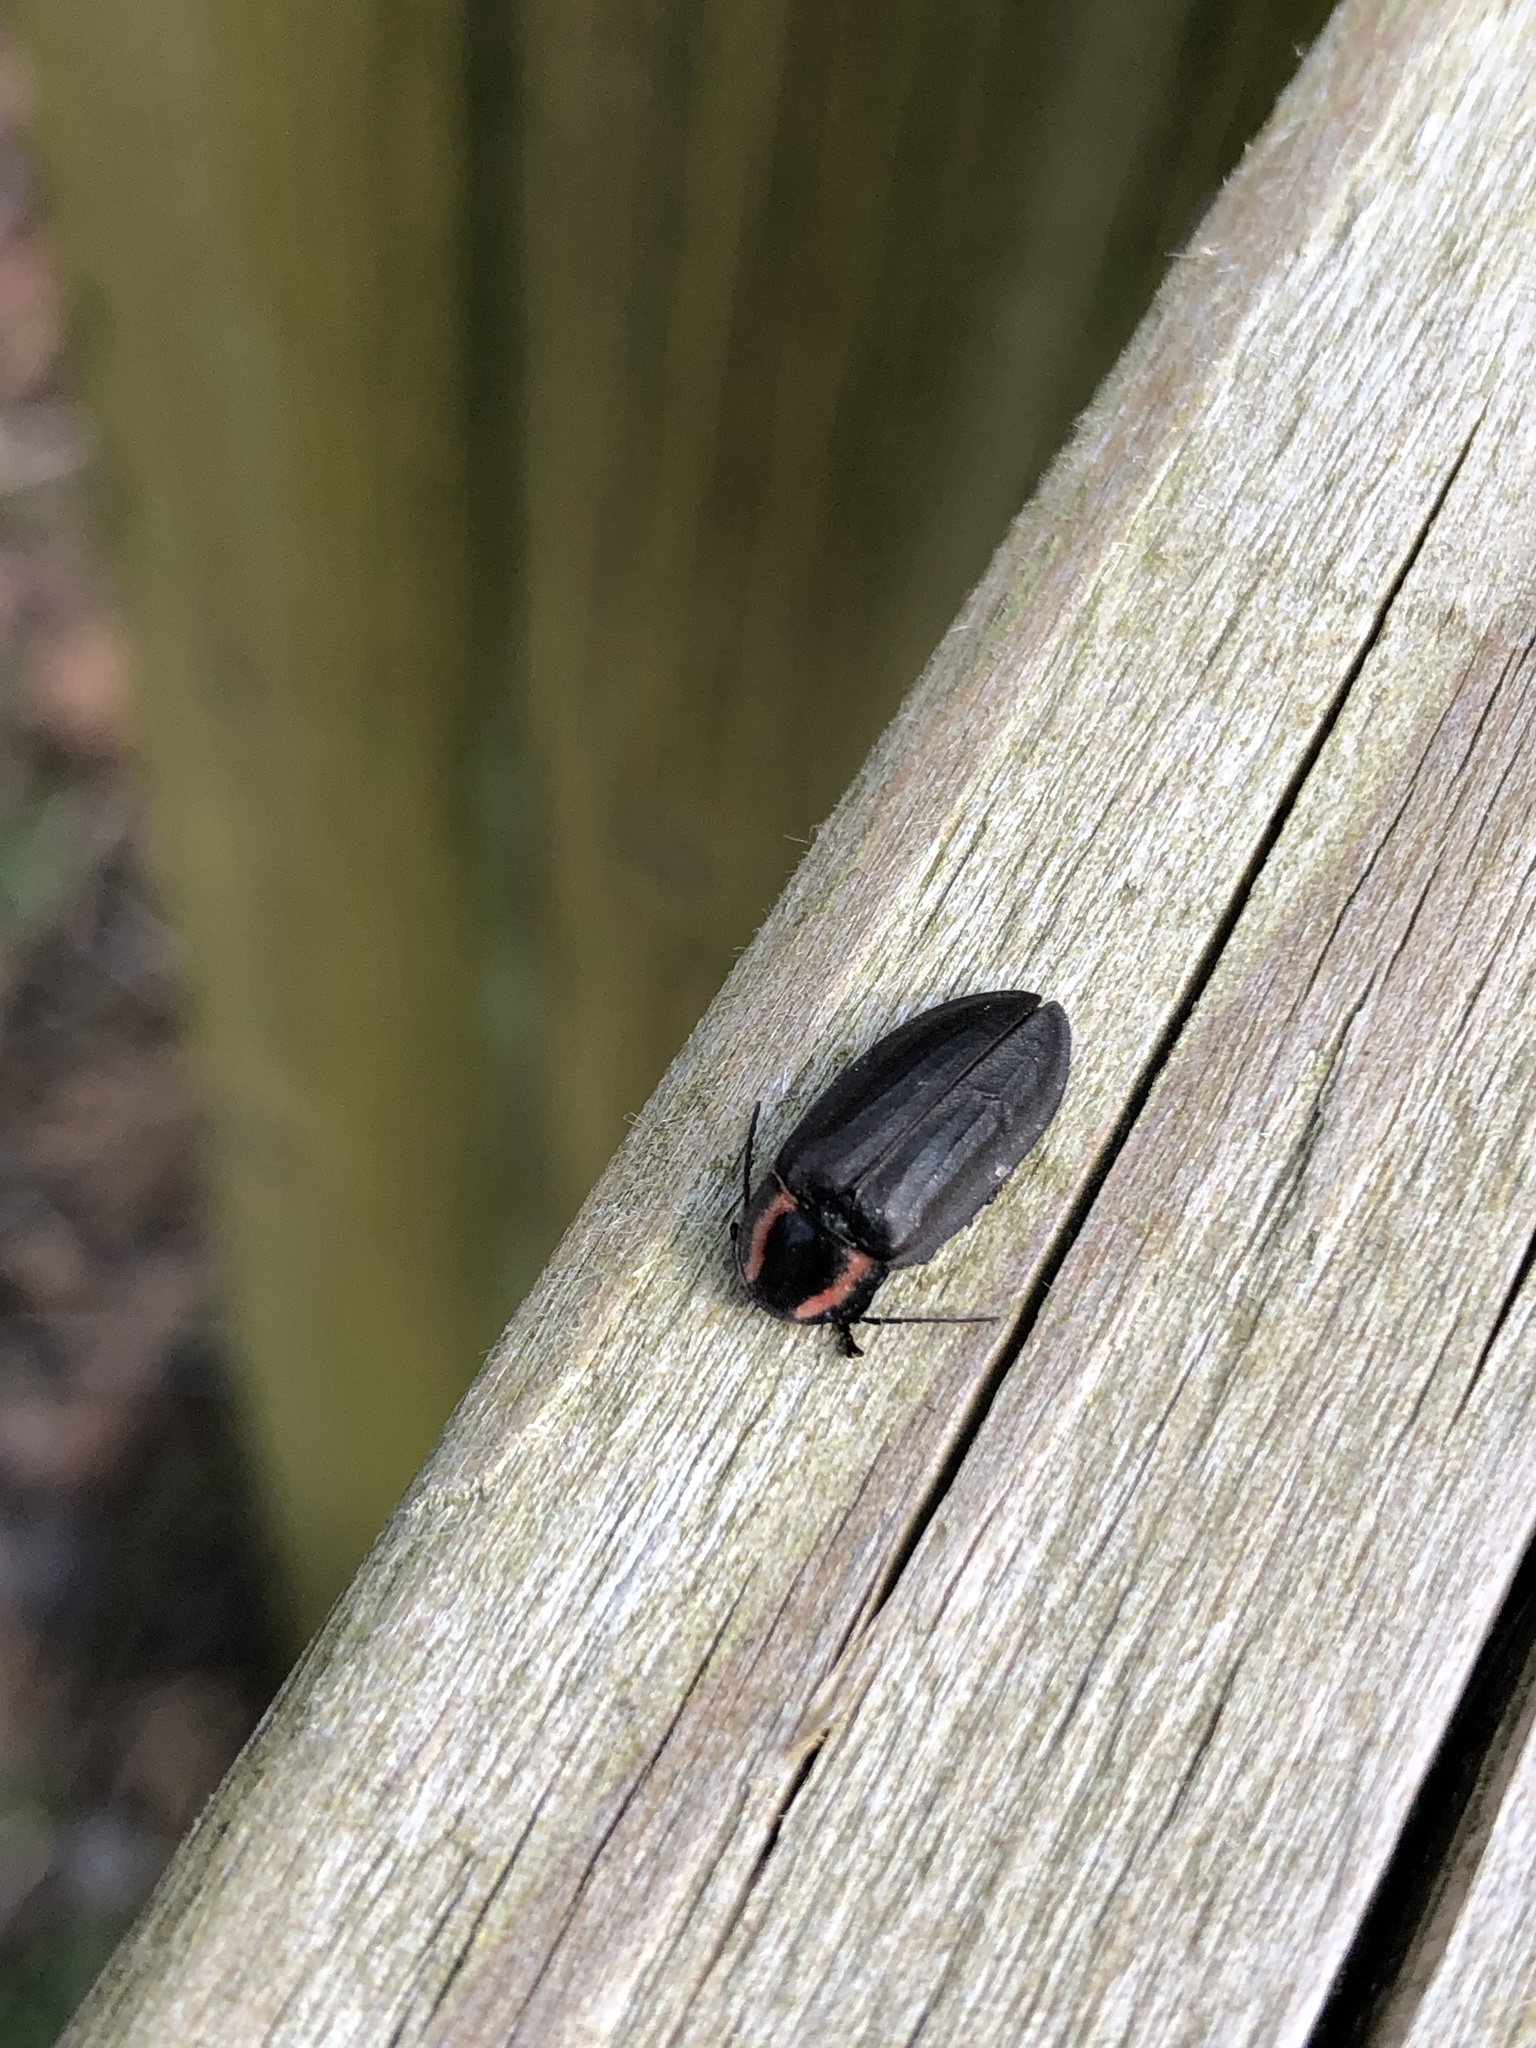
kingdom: Animalia
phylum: Arthropoda
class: Insecta
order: Coleoptera
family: Lampyridae
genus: Photinus
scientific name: Photinus californica
